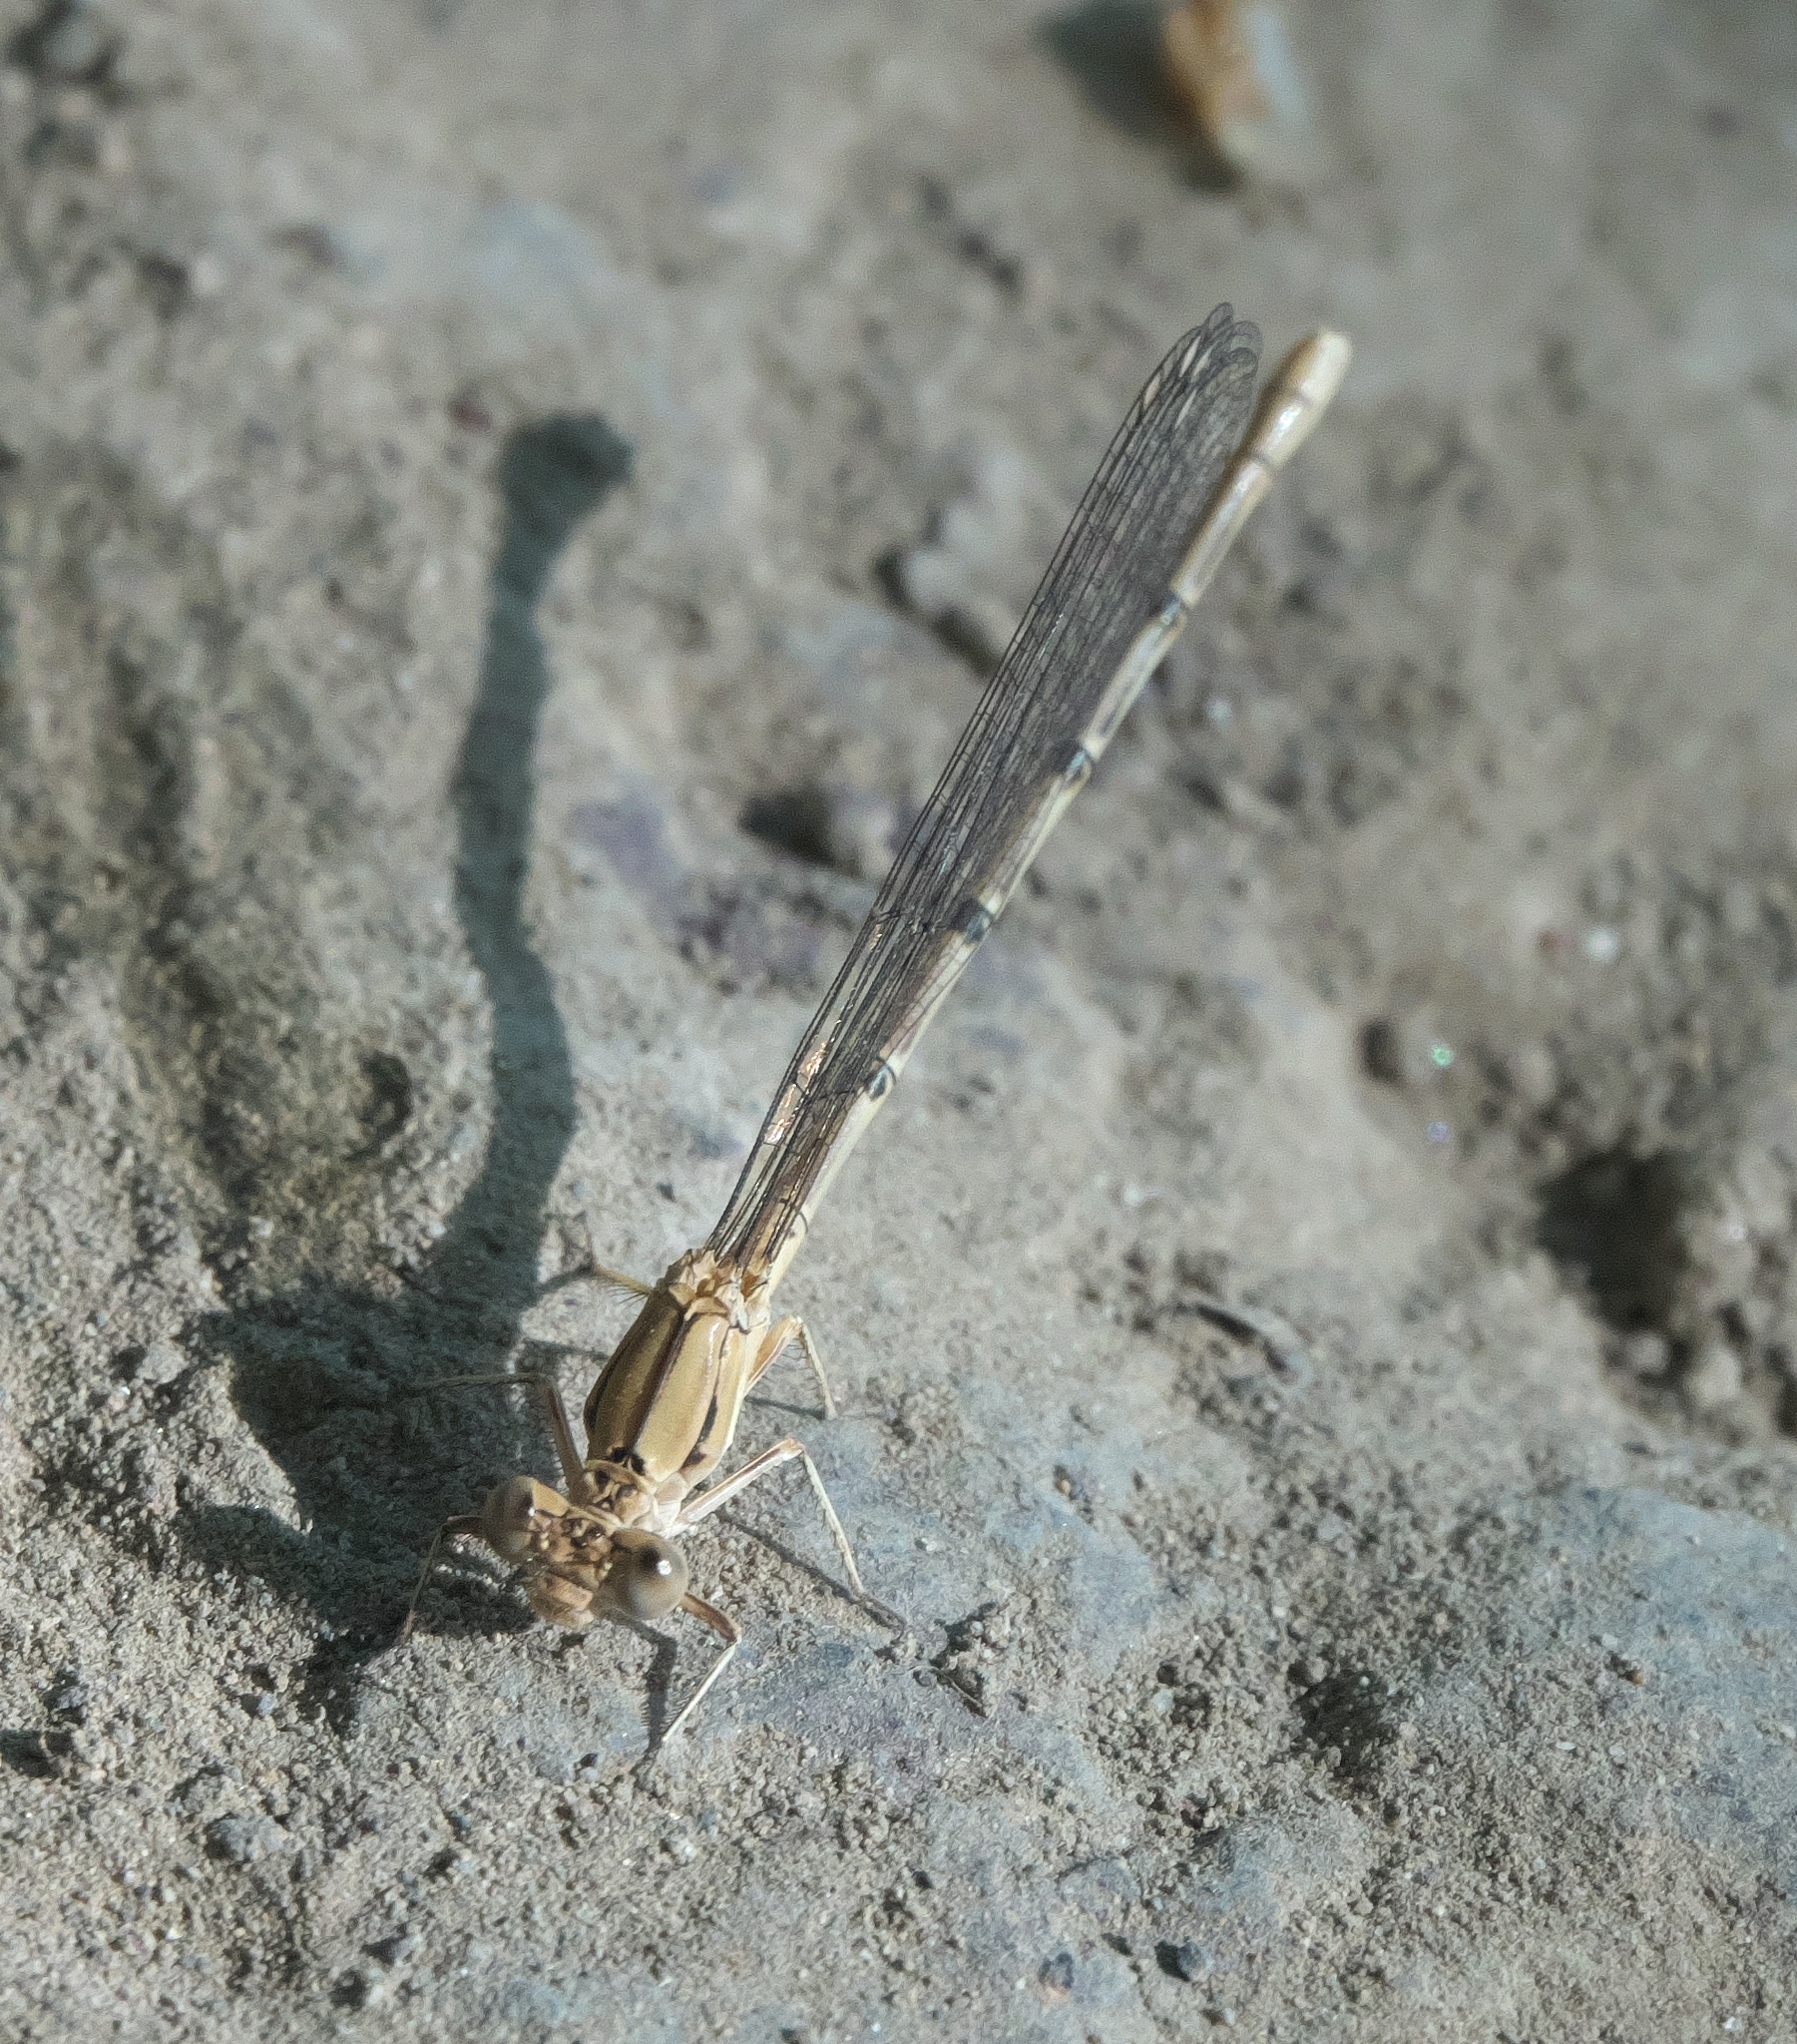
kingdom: Animalia
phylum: Arthropoda
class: Insecta
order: Odonata
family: Coenagrionidae
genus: Argia
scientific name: Argia emma
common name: Emma's dancer
